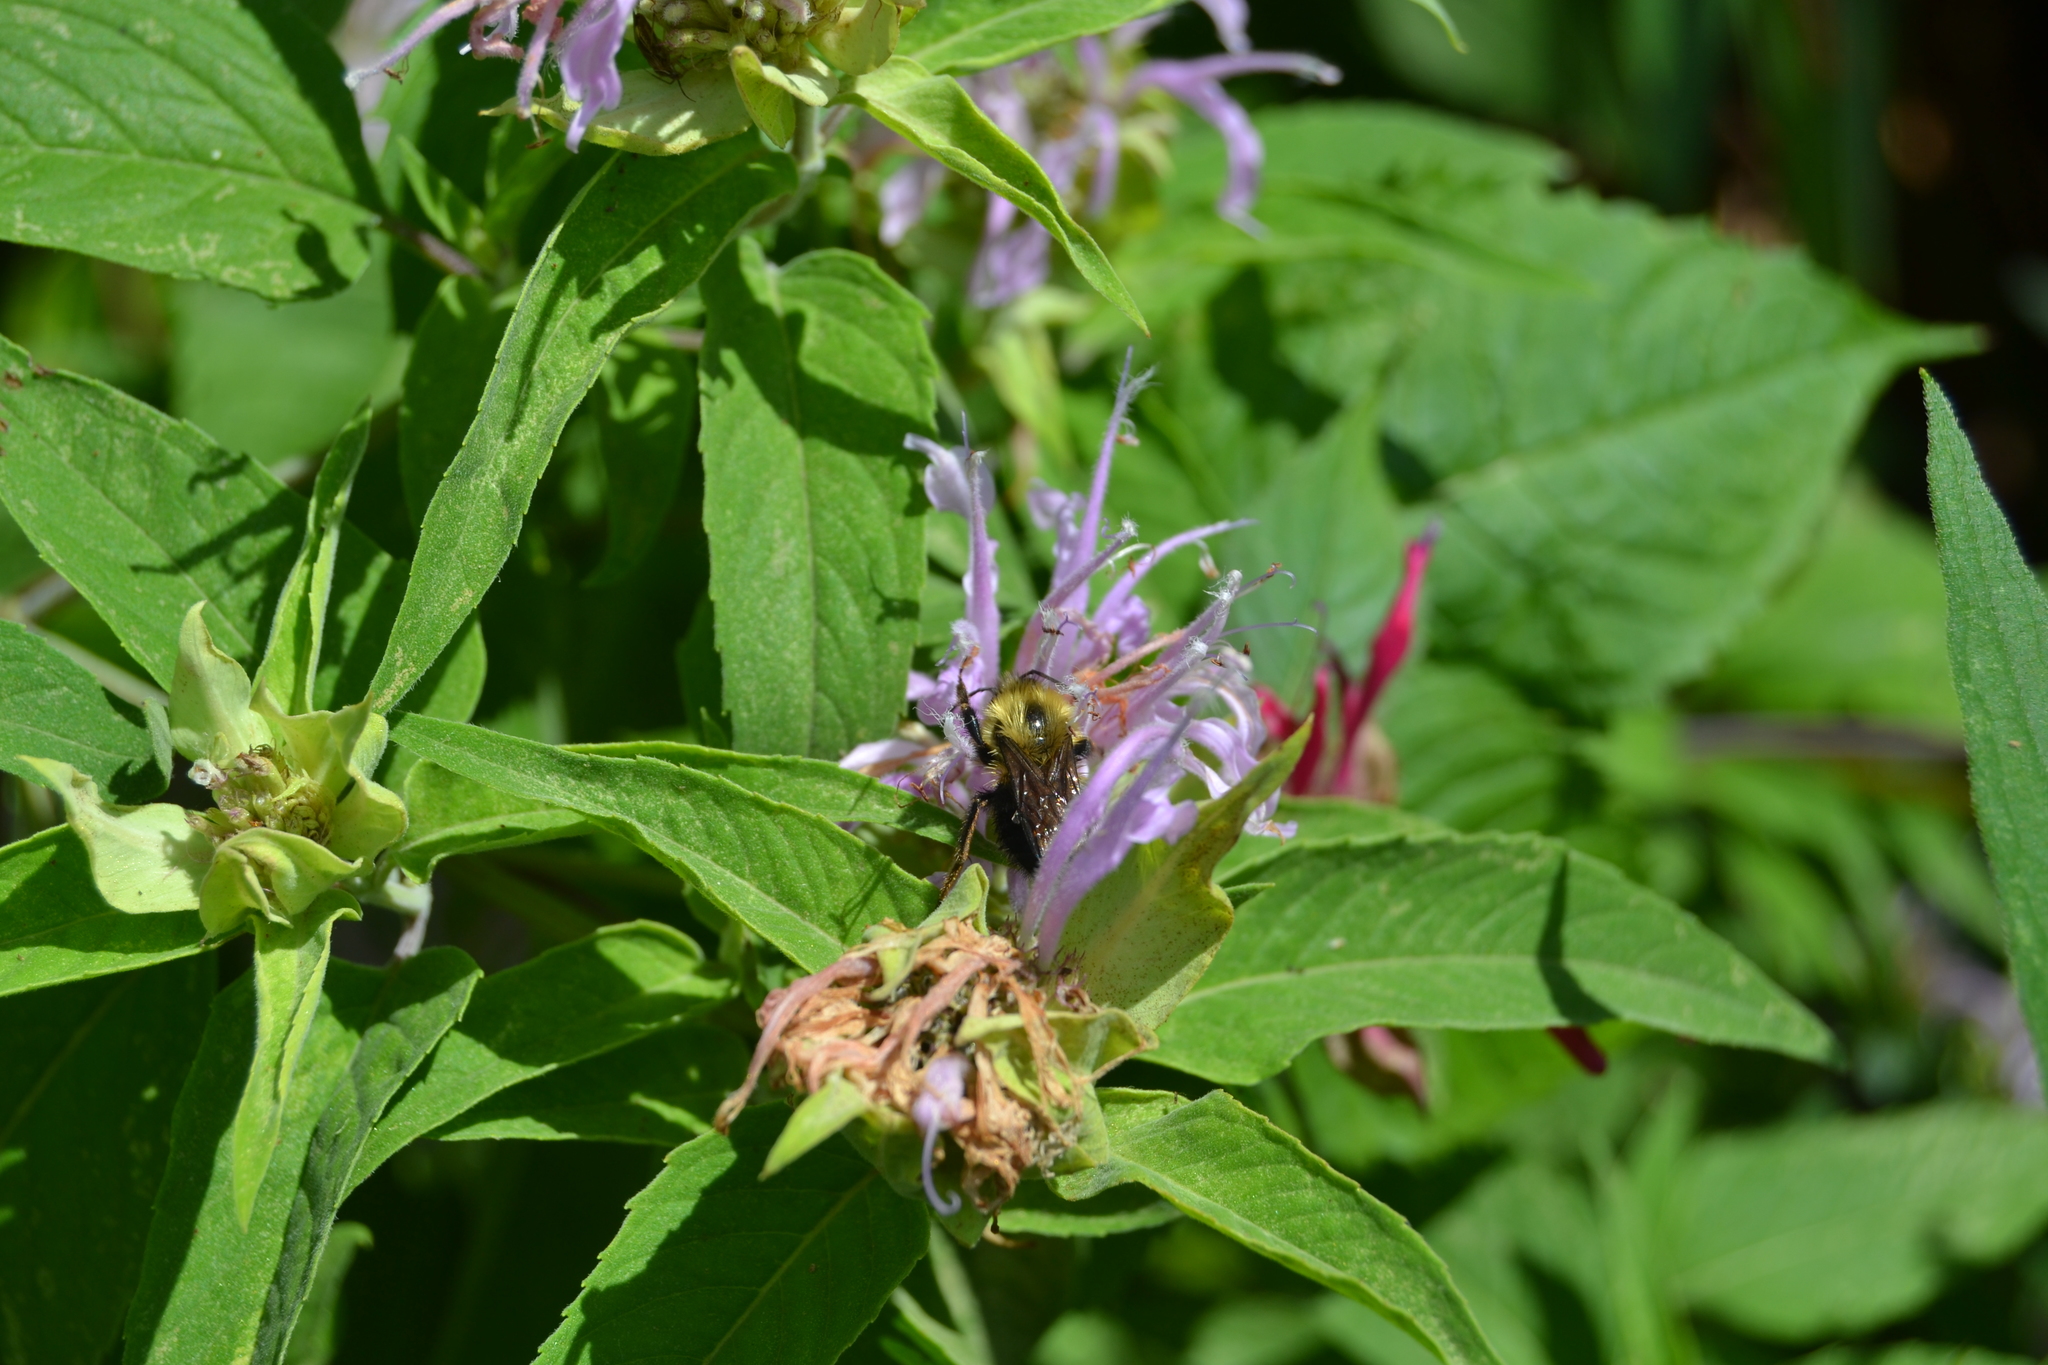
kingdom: Animalia
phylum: Arthropoda
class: Insecta
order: Hymenoptera
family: Apidae
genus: Bombus
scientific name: Bombus bimaculatus
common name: Two-spotted bumble bee
